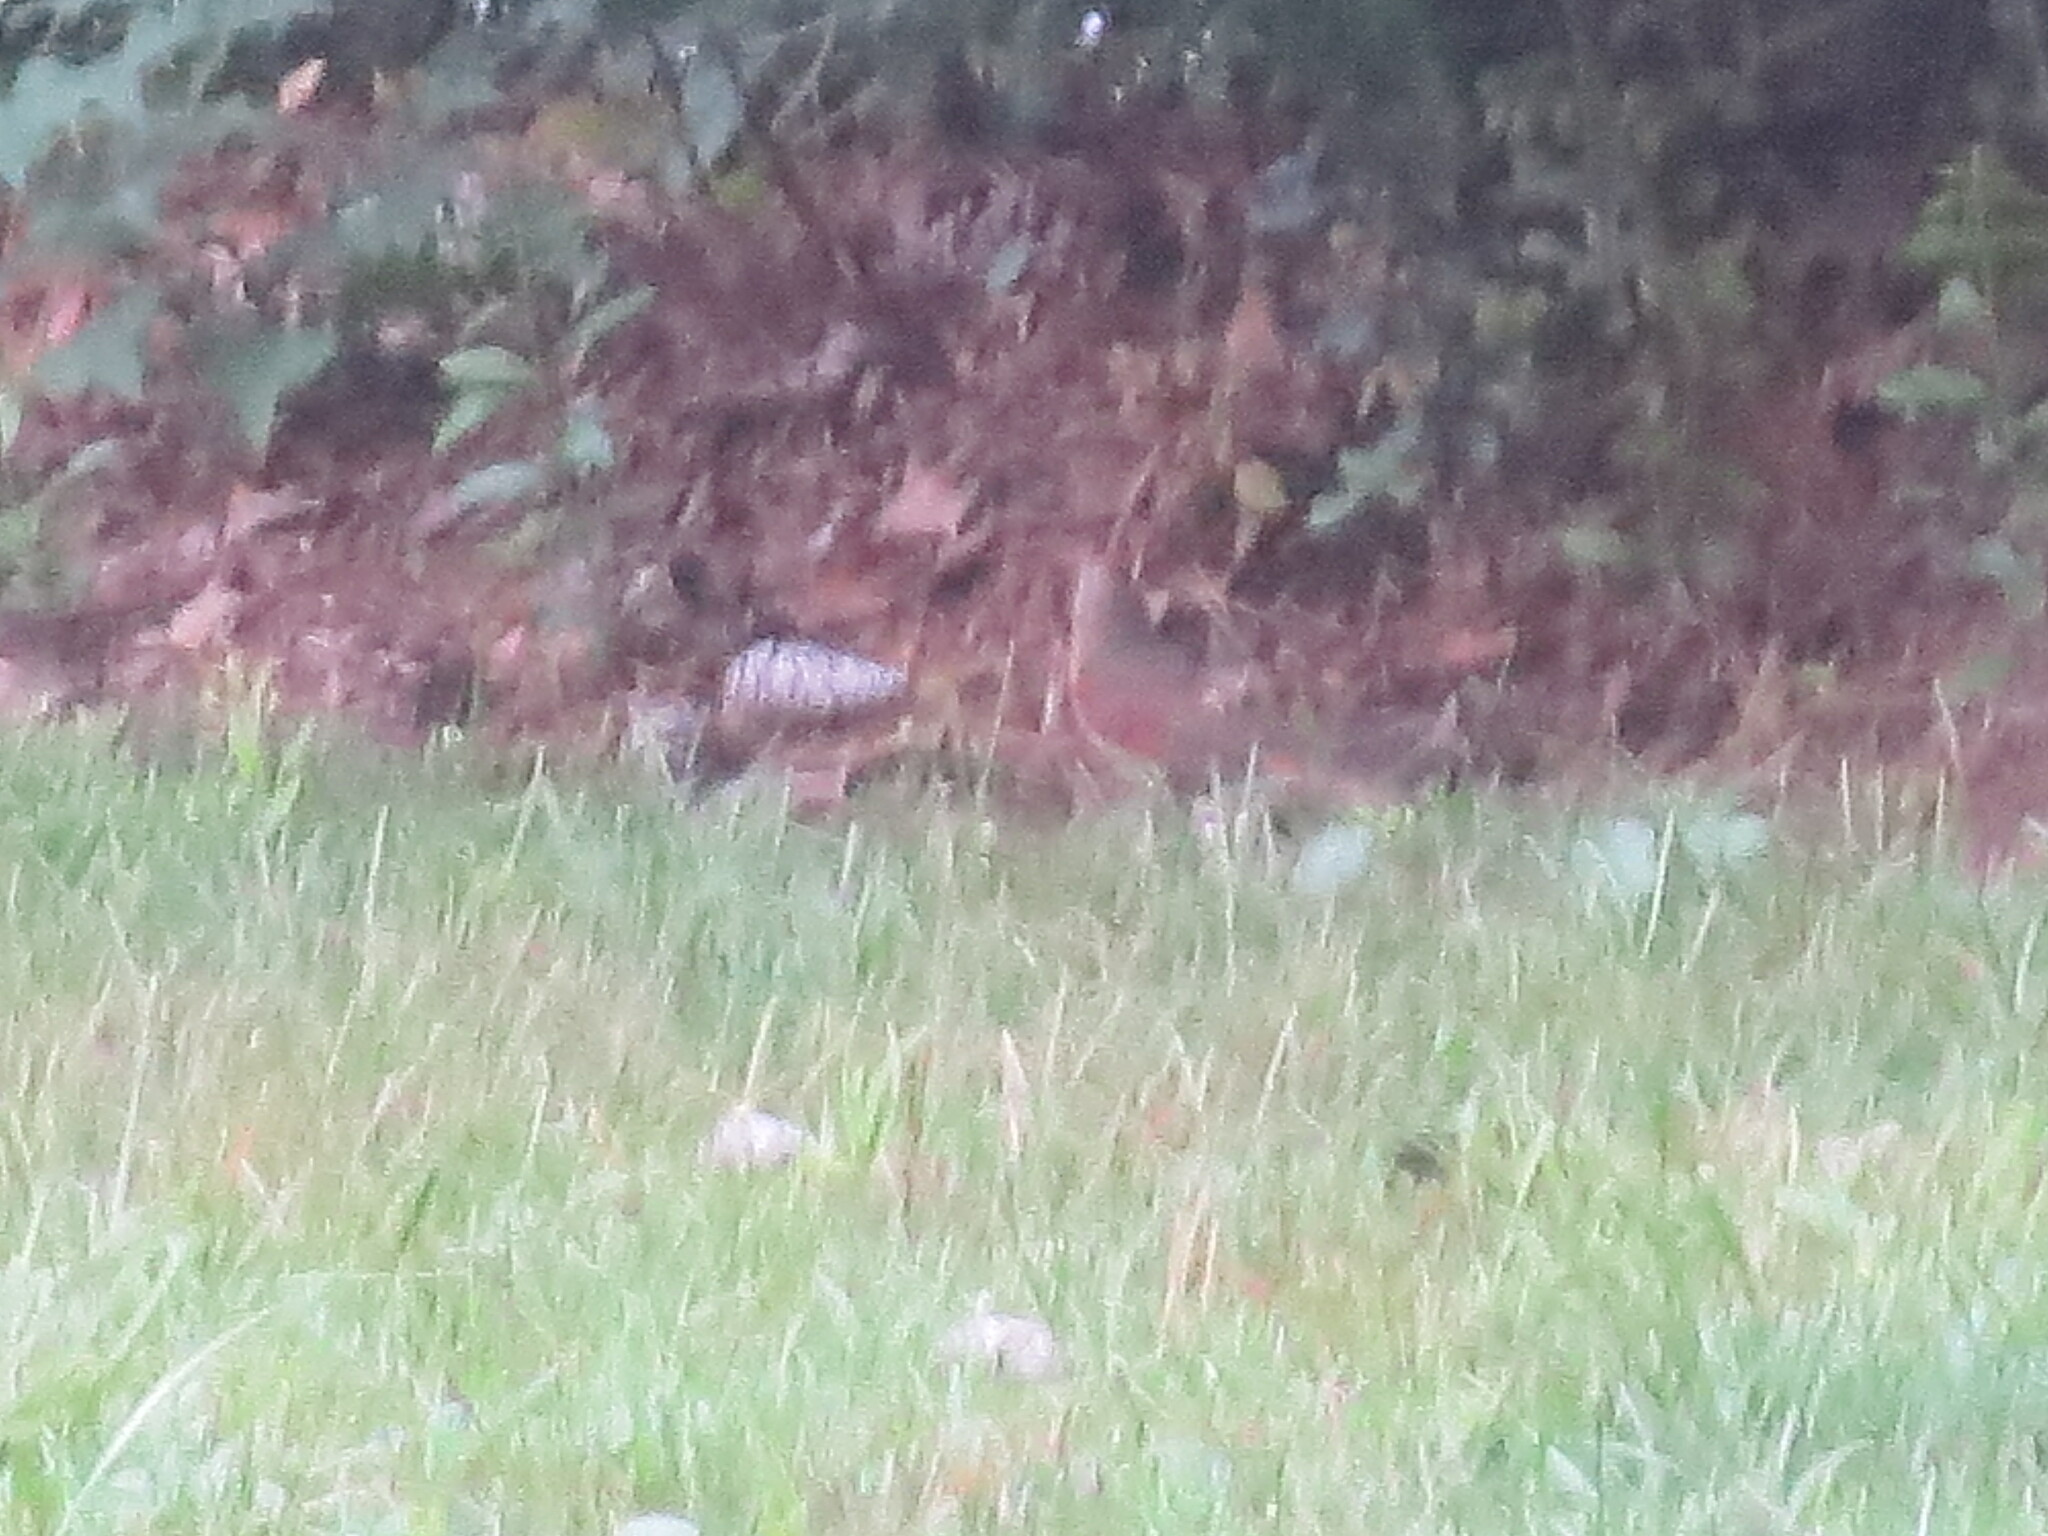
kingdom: Animalia
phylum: Chordata
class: Aves
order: Passeriformes
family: Cardinalidae
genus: Cardinalis
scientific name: Cardinalis cardinalis
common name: Northern cardinal
